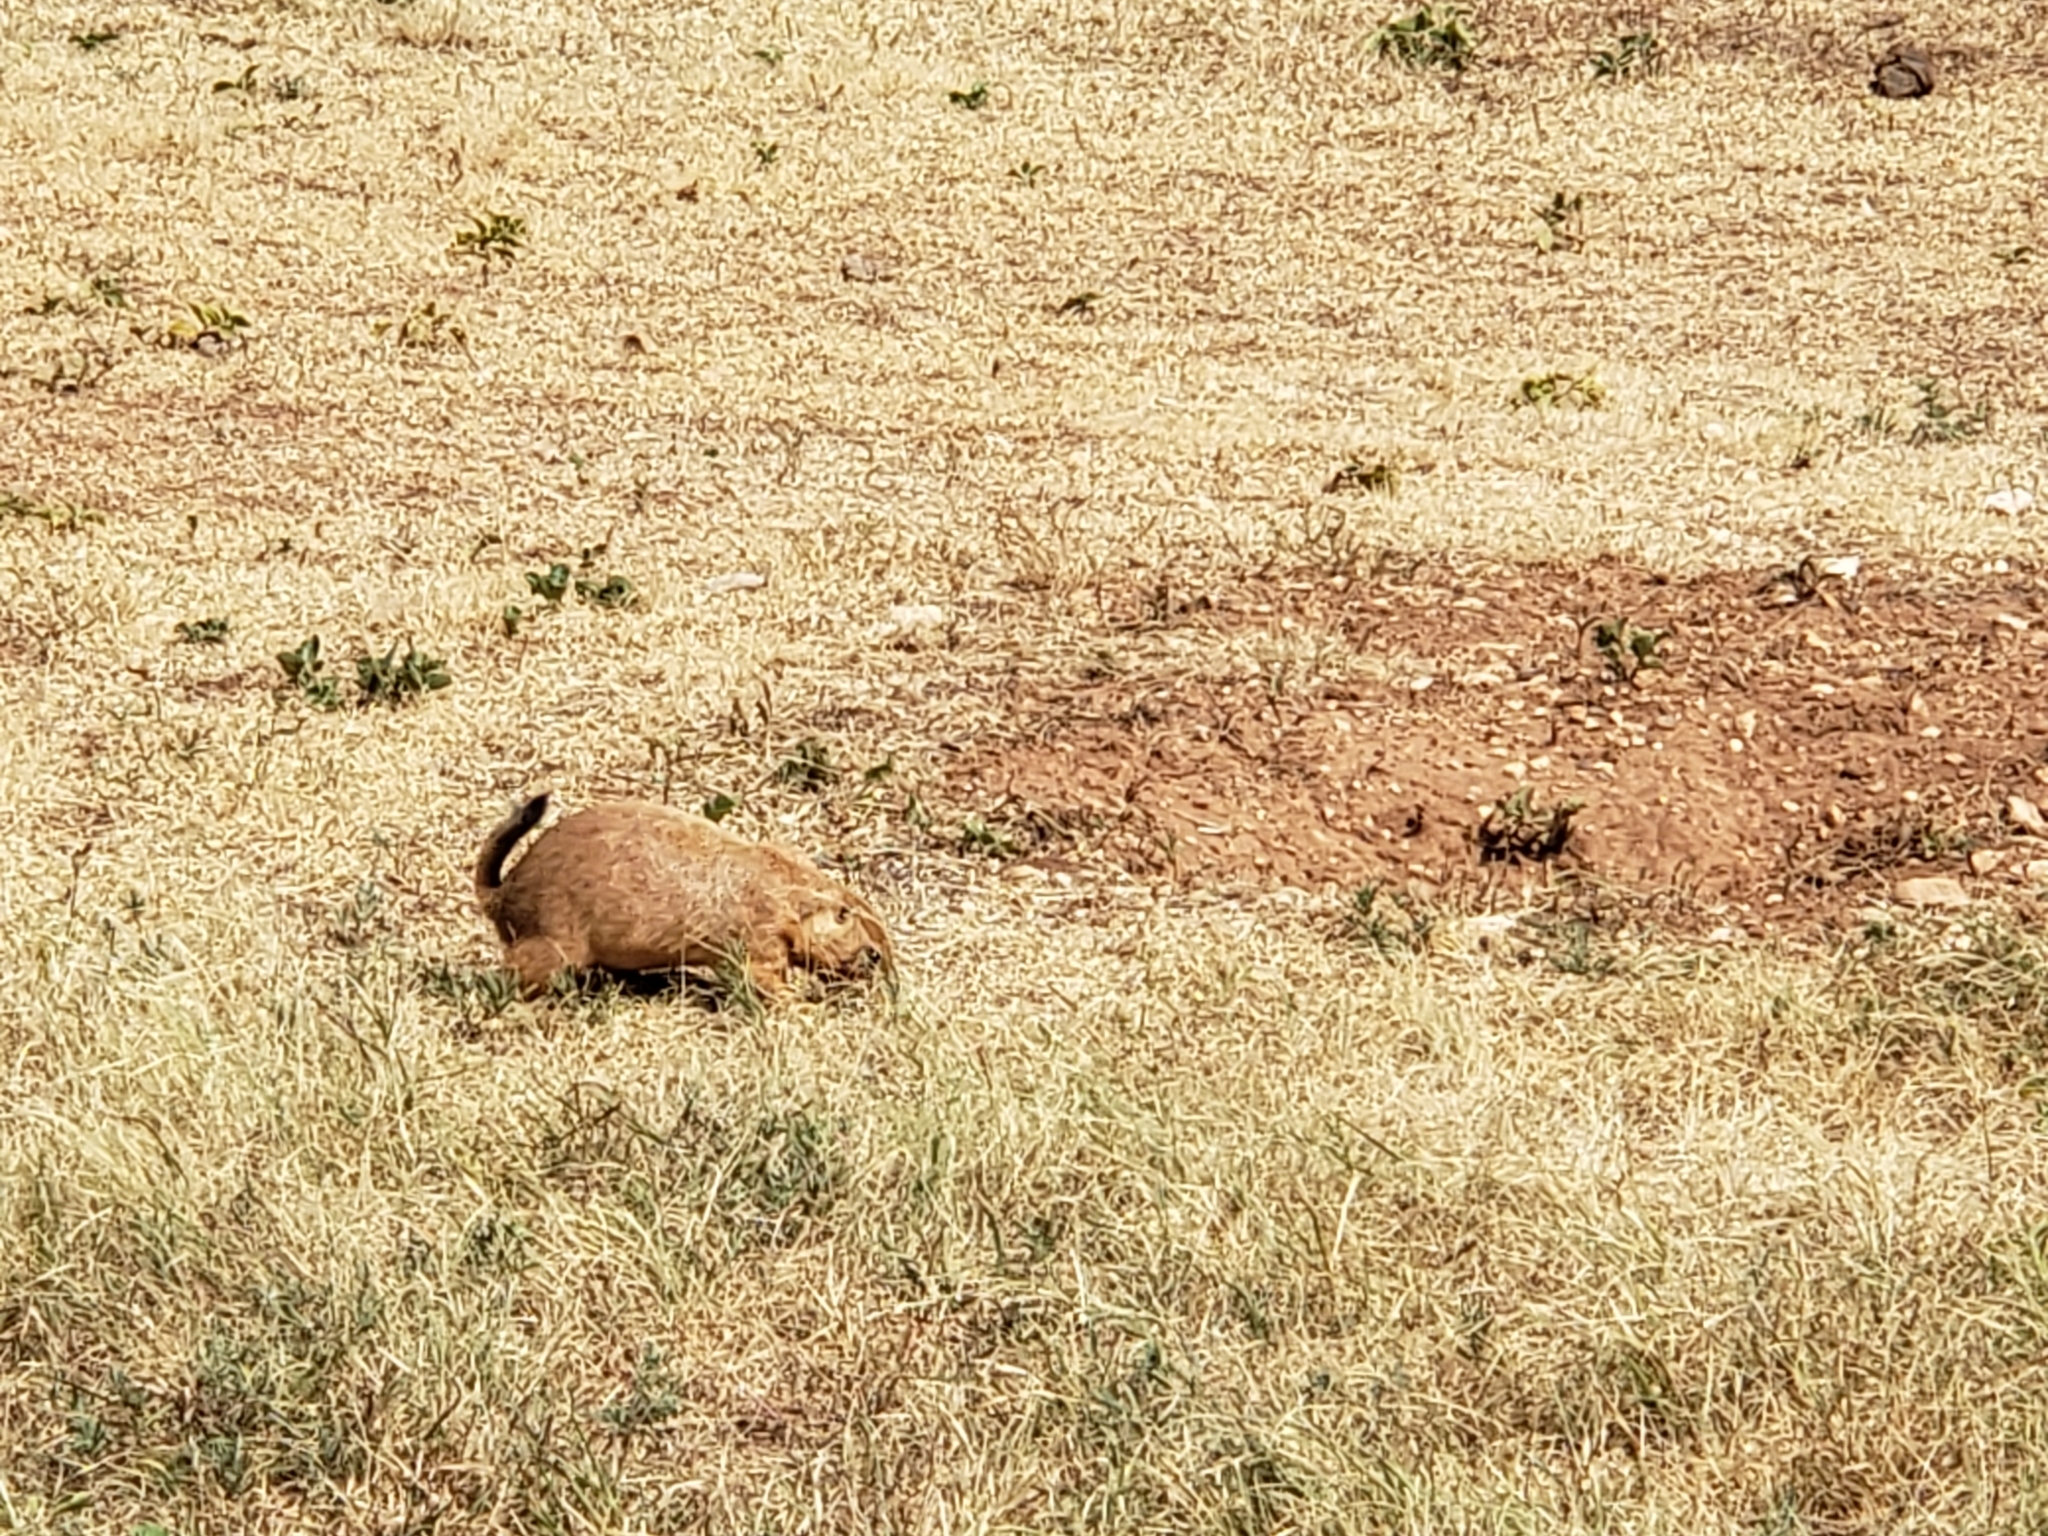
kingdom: Animalia
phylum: Chordata
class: Mammalia
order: Rodentia
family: Sciuridae
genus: Cynomys
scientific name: Cynomys ludovicianus
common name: Black-tailed prairie dog
